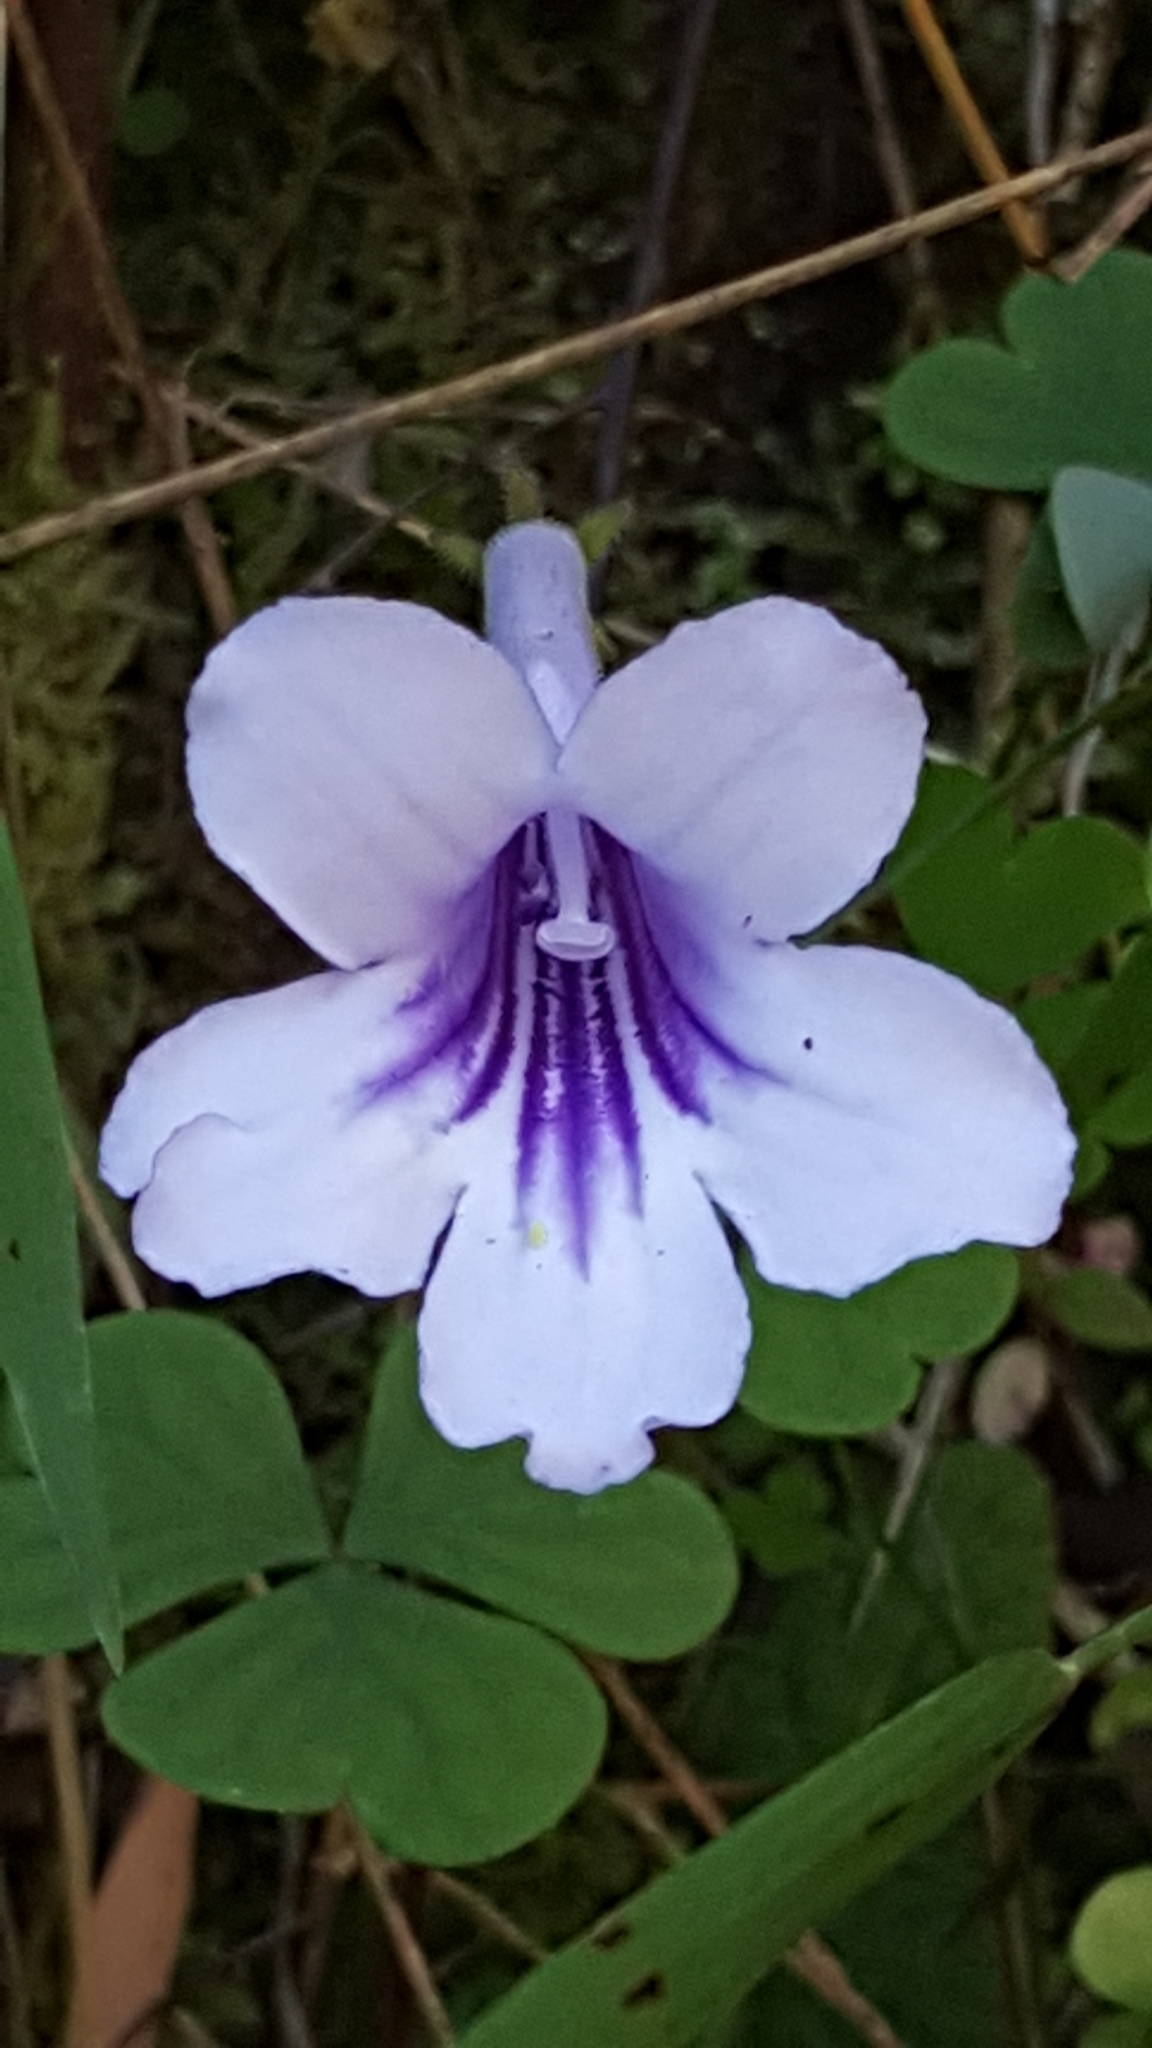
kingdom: Plantae
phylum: Tracheophyta
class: Magnoliopsida
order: Lamiales
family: Gesneriaceae
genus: Streptocarpus
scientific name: Streptocarpus rexii
